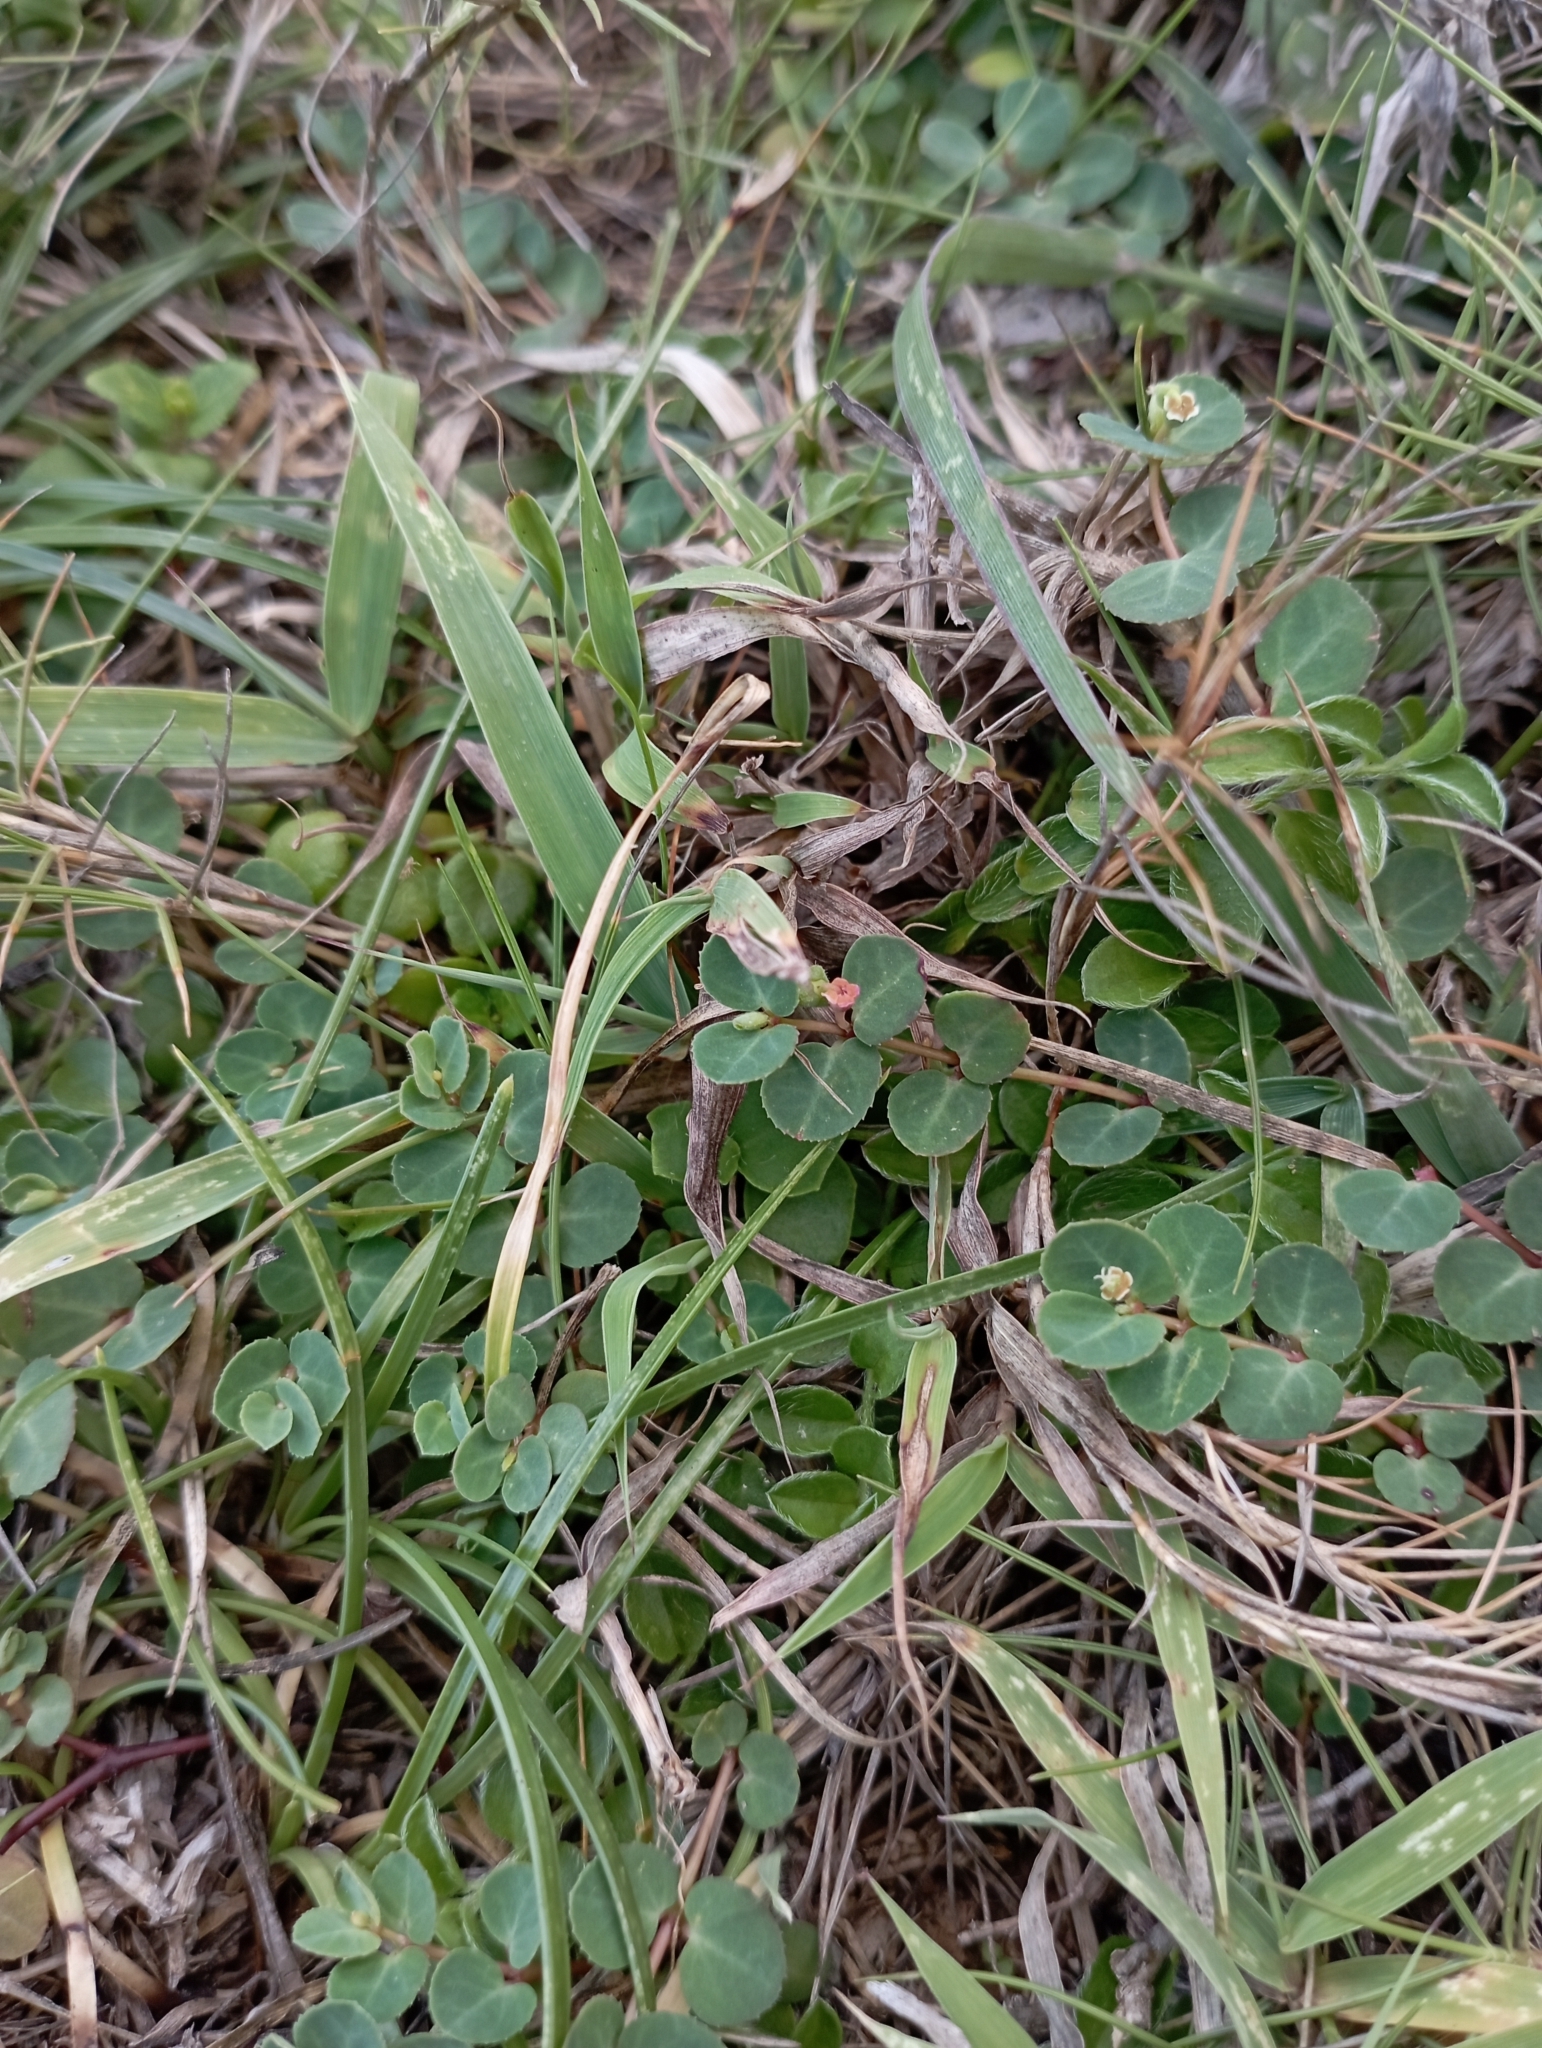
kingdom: Plantae
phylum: Tracheophyta
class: Magnoliopsida
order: Malpighiales
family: Euphorbiaceae
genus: Euphorbia
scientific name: Euphorbia garanbiensis
